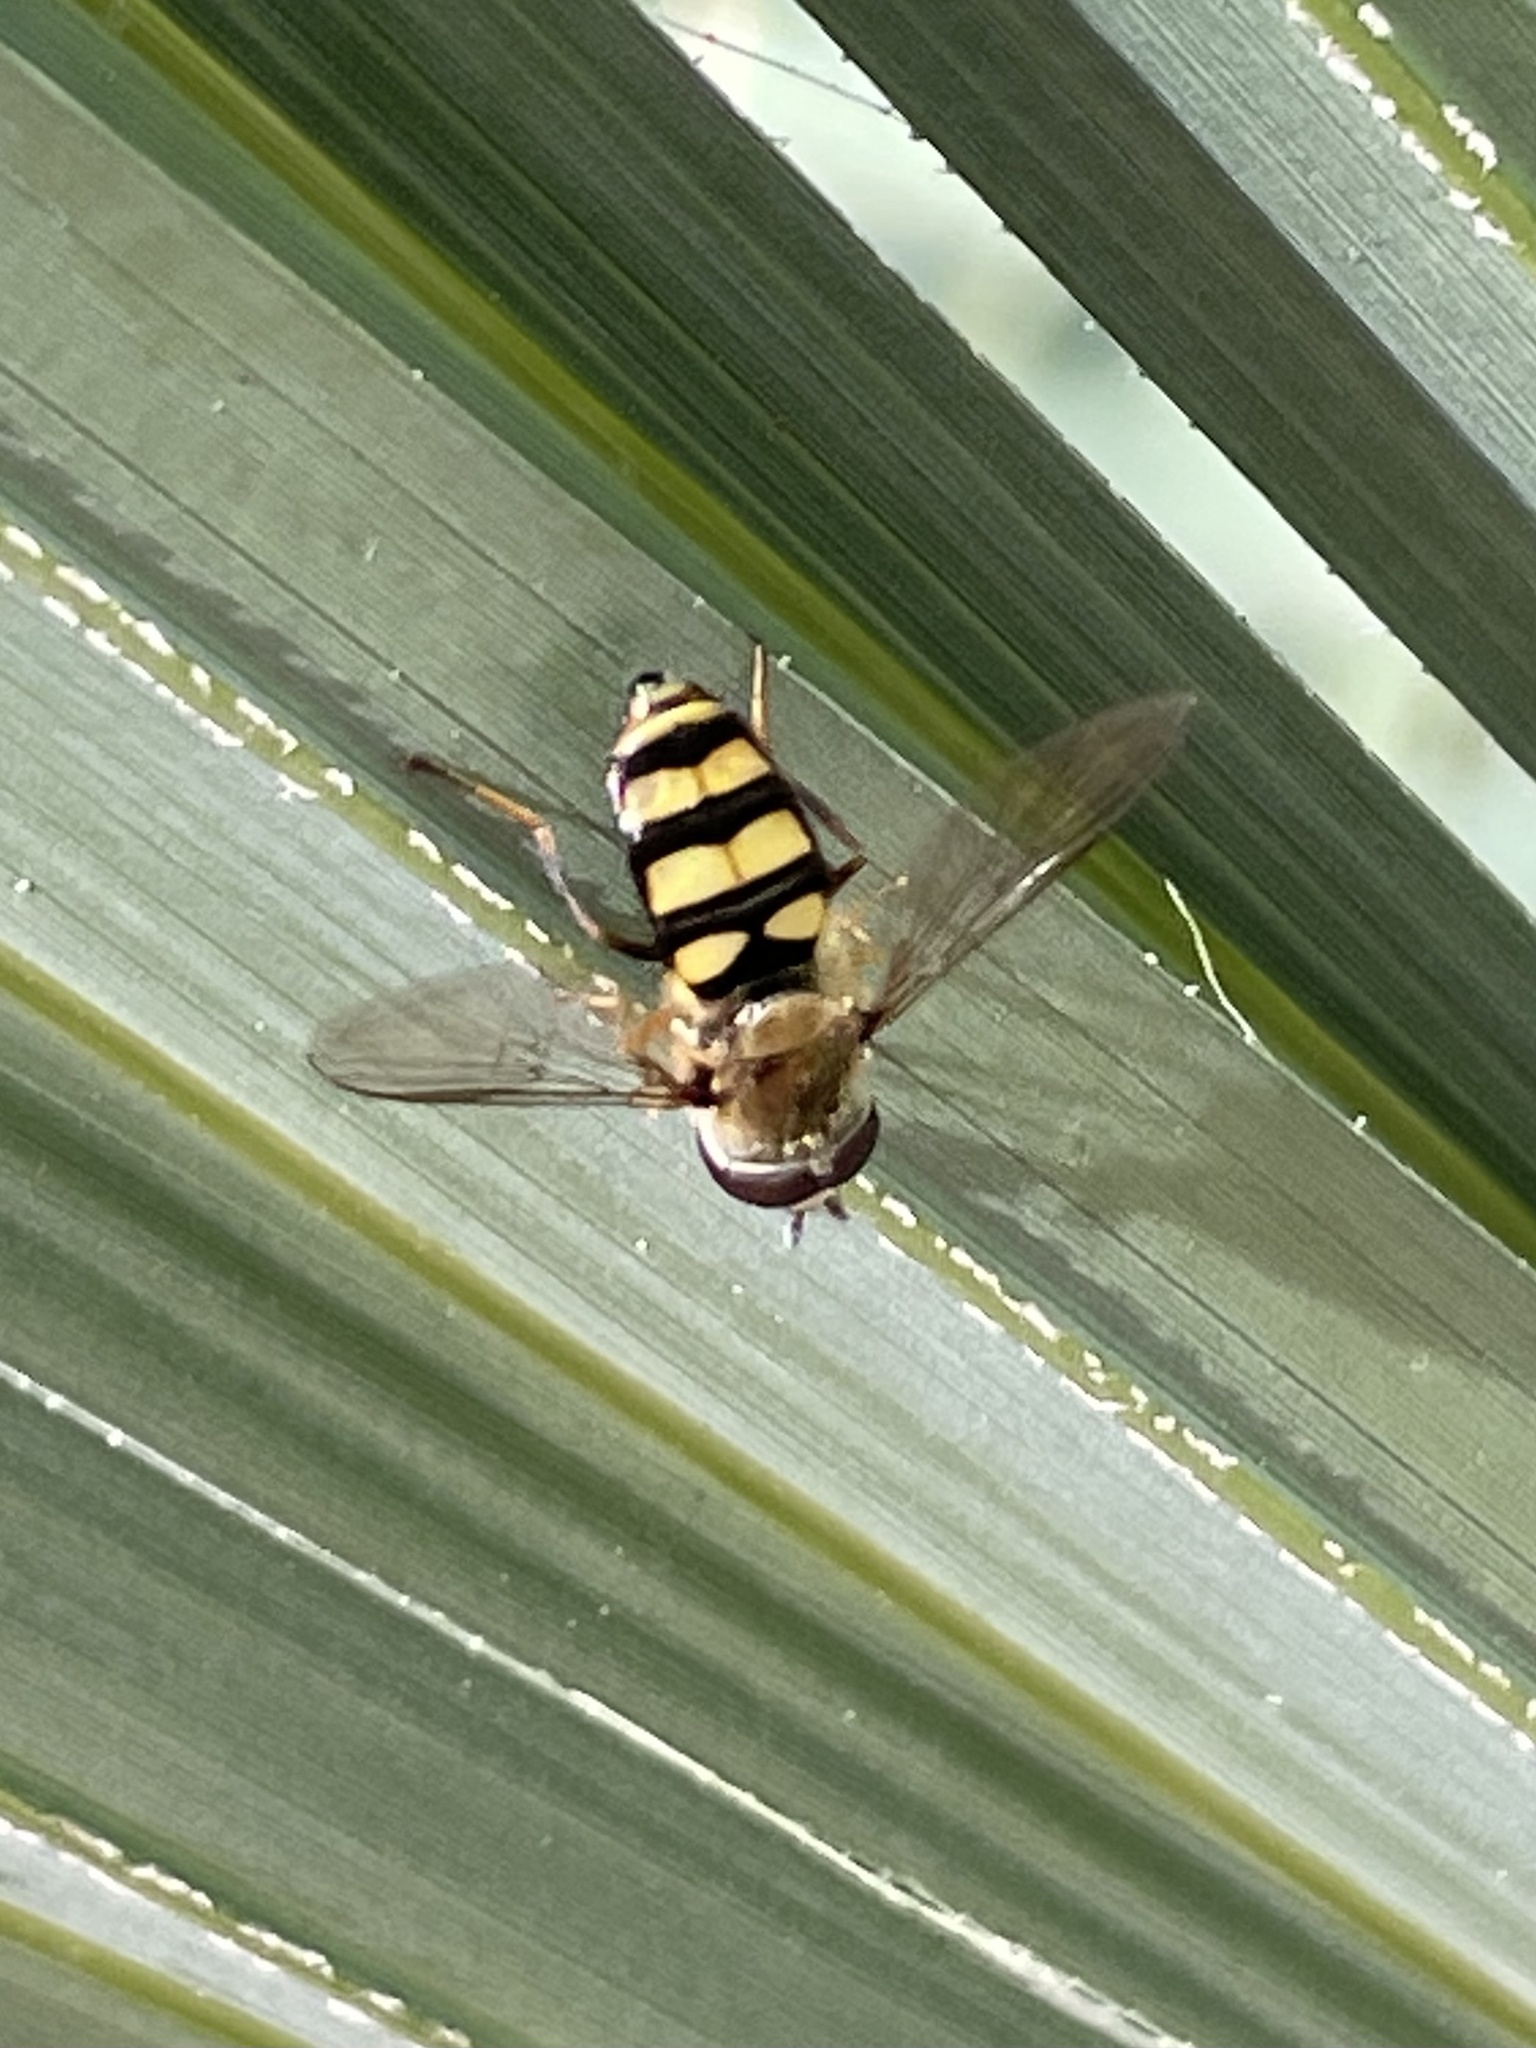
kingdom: Animalia
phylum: Arthropoda
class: Insecta
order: Diptera
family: Syrphidae
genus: Eupeodes
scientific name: Eupeodes
